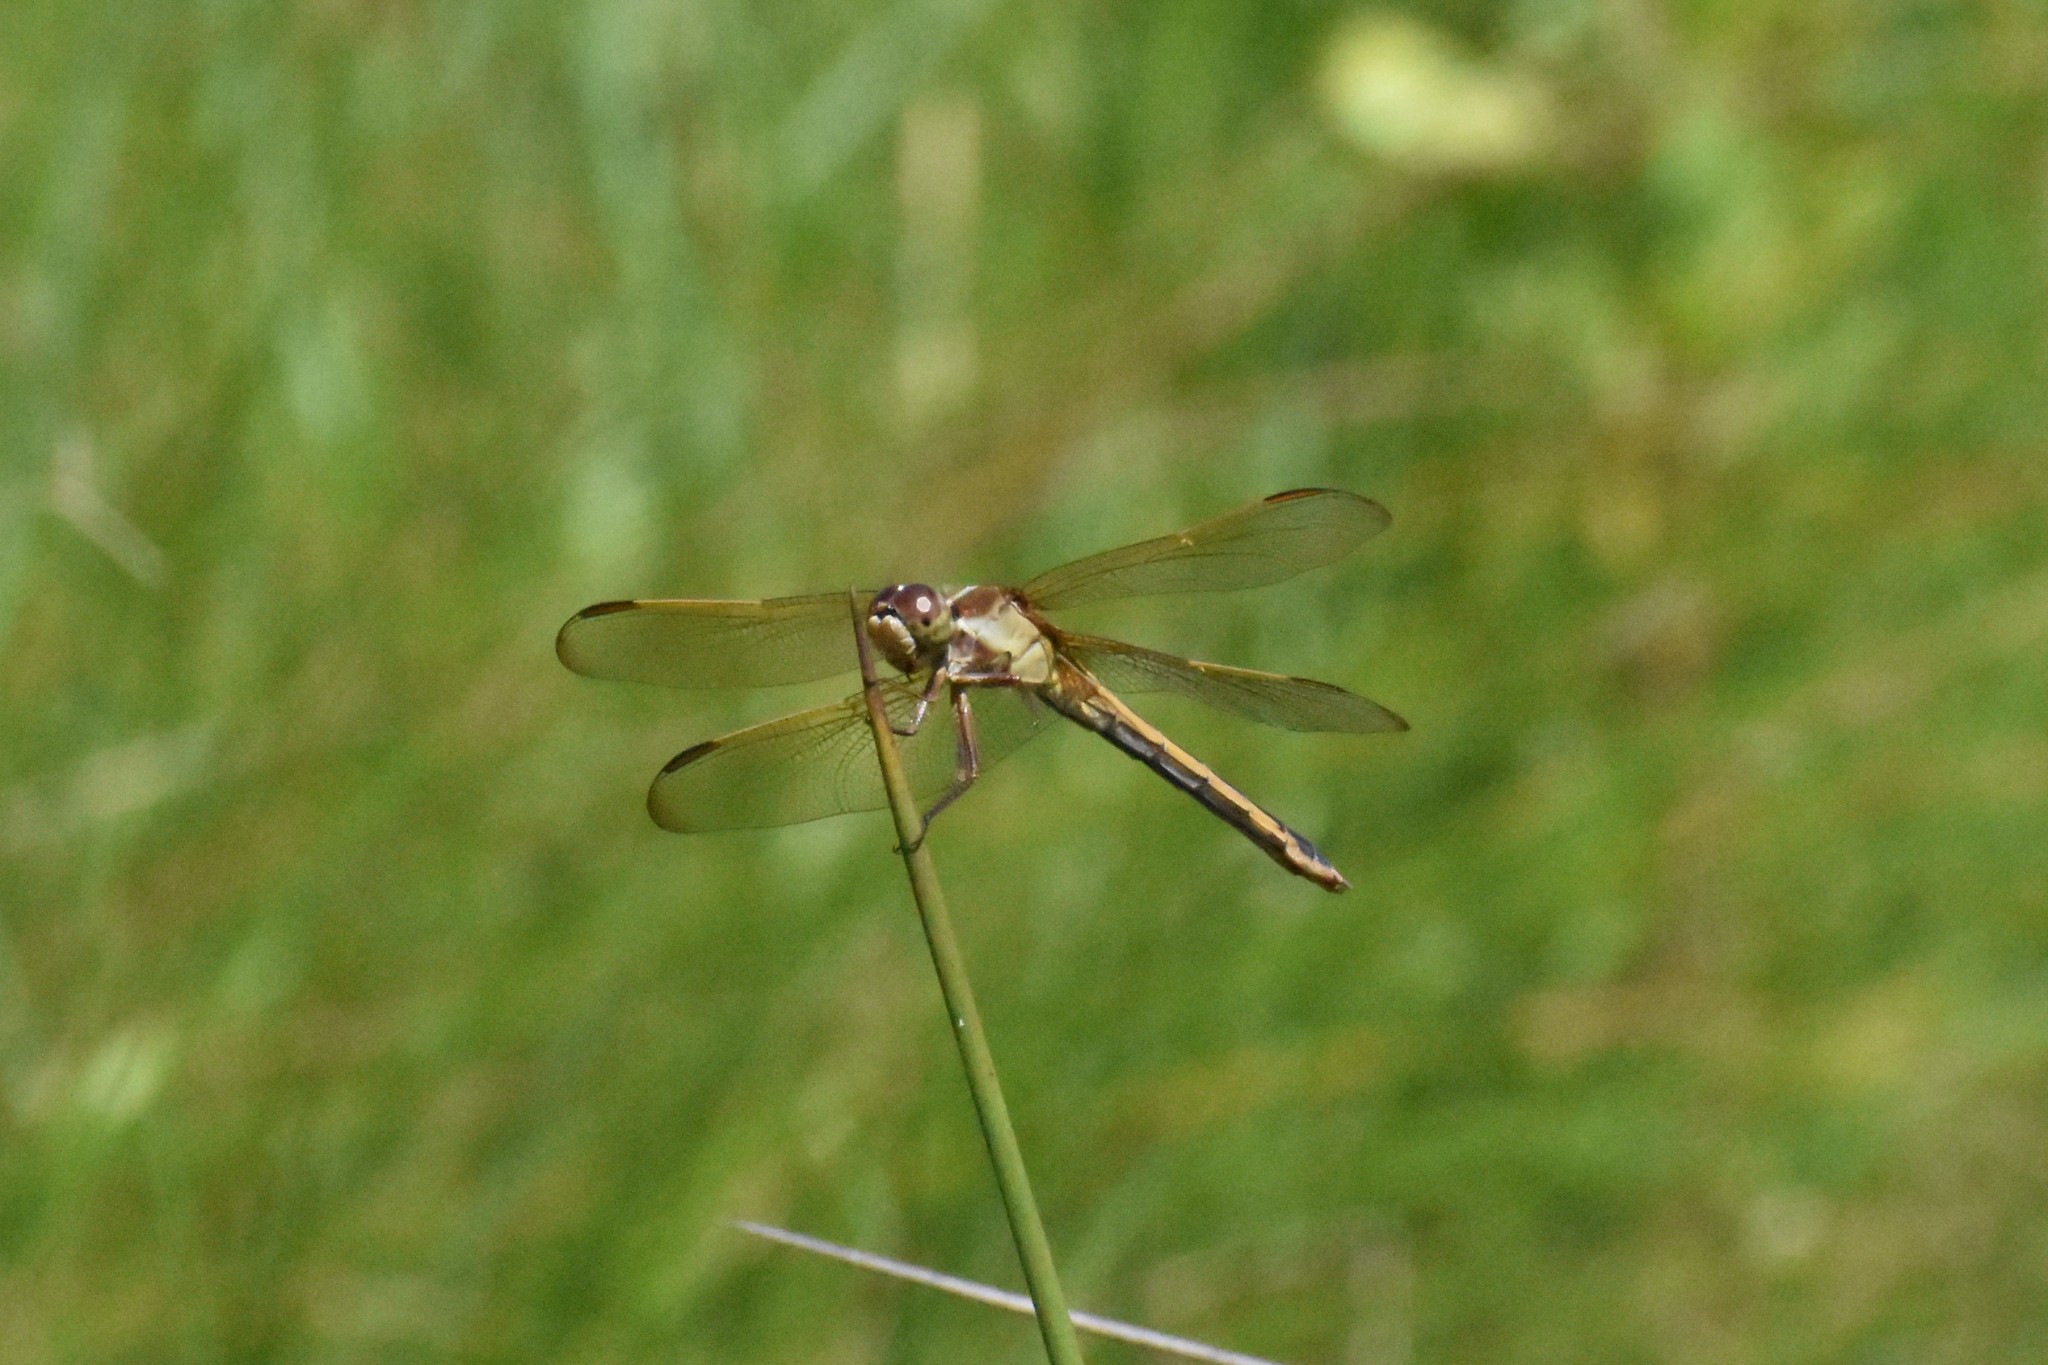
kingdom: Animalia
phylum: Arthropoda
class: Insecta
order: Odonata
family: Libellulidae
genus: Libellula
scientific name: Libellula needhami
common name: Needham's skimmer
